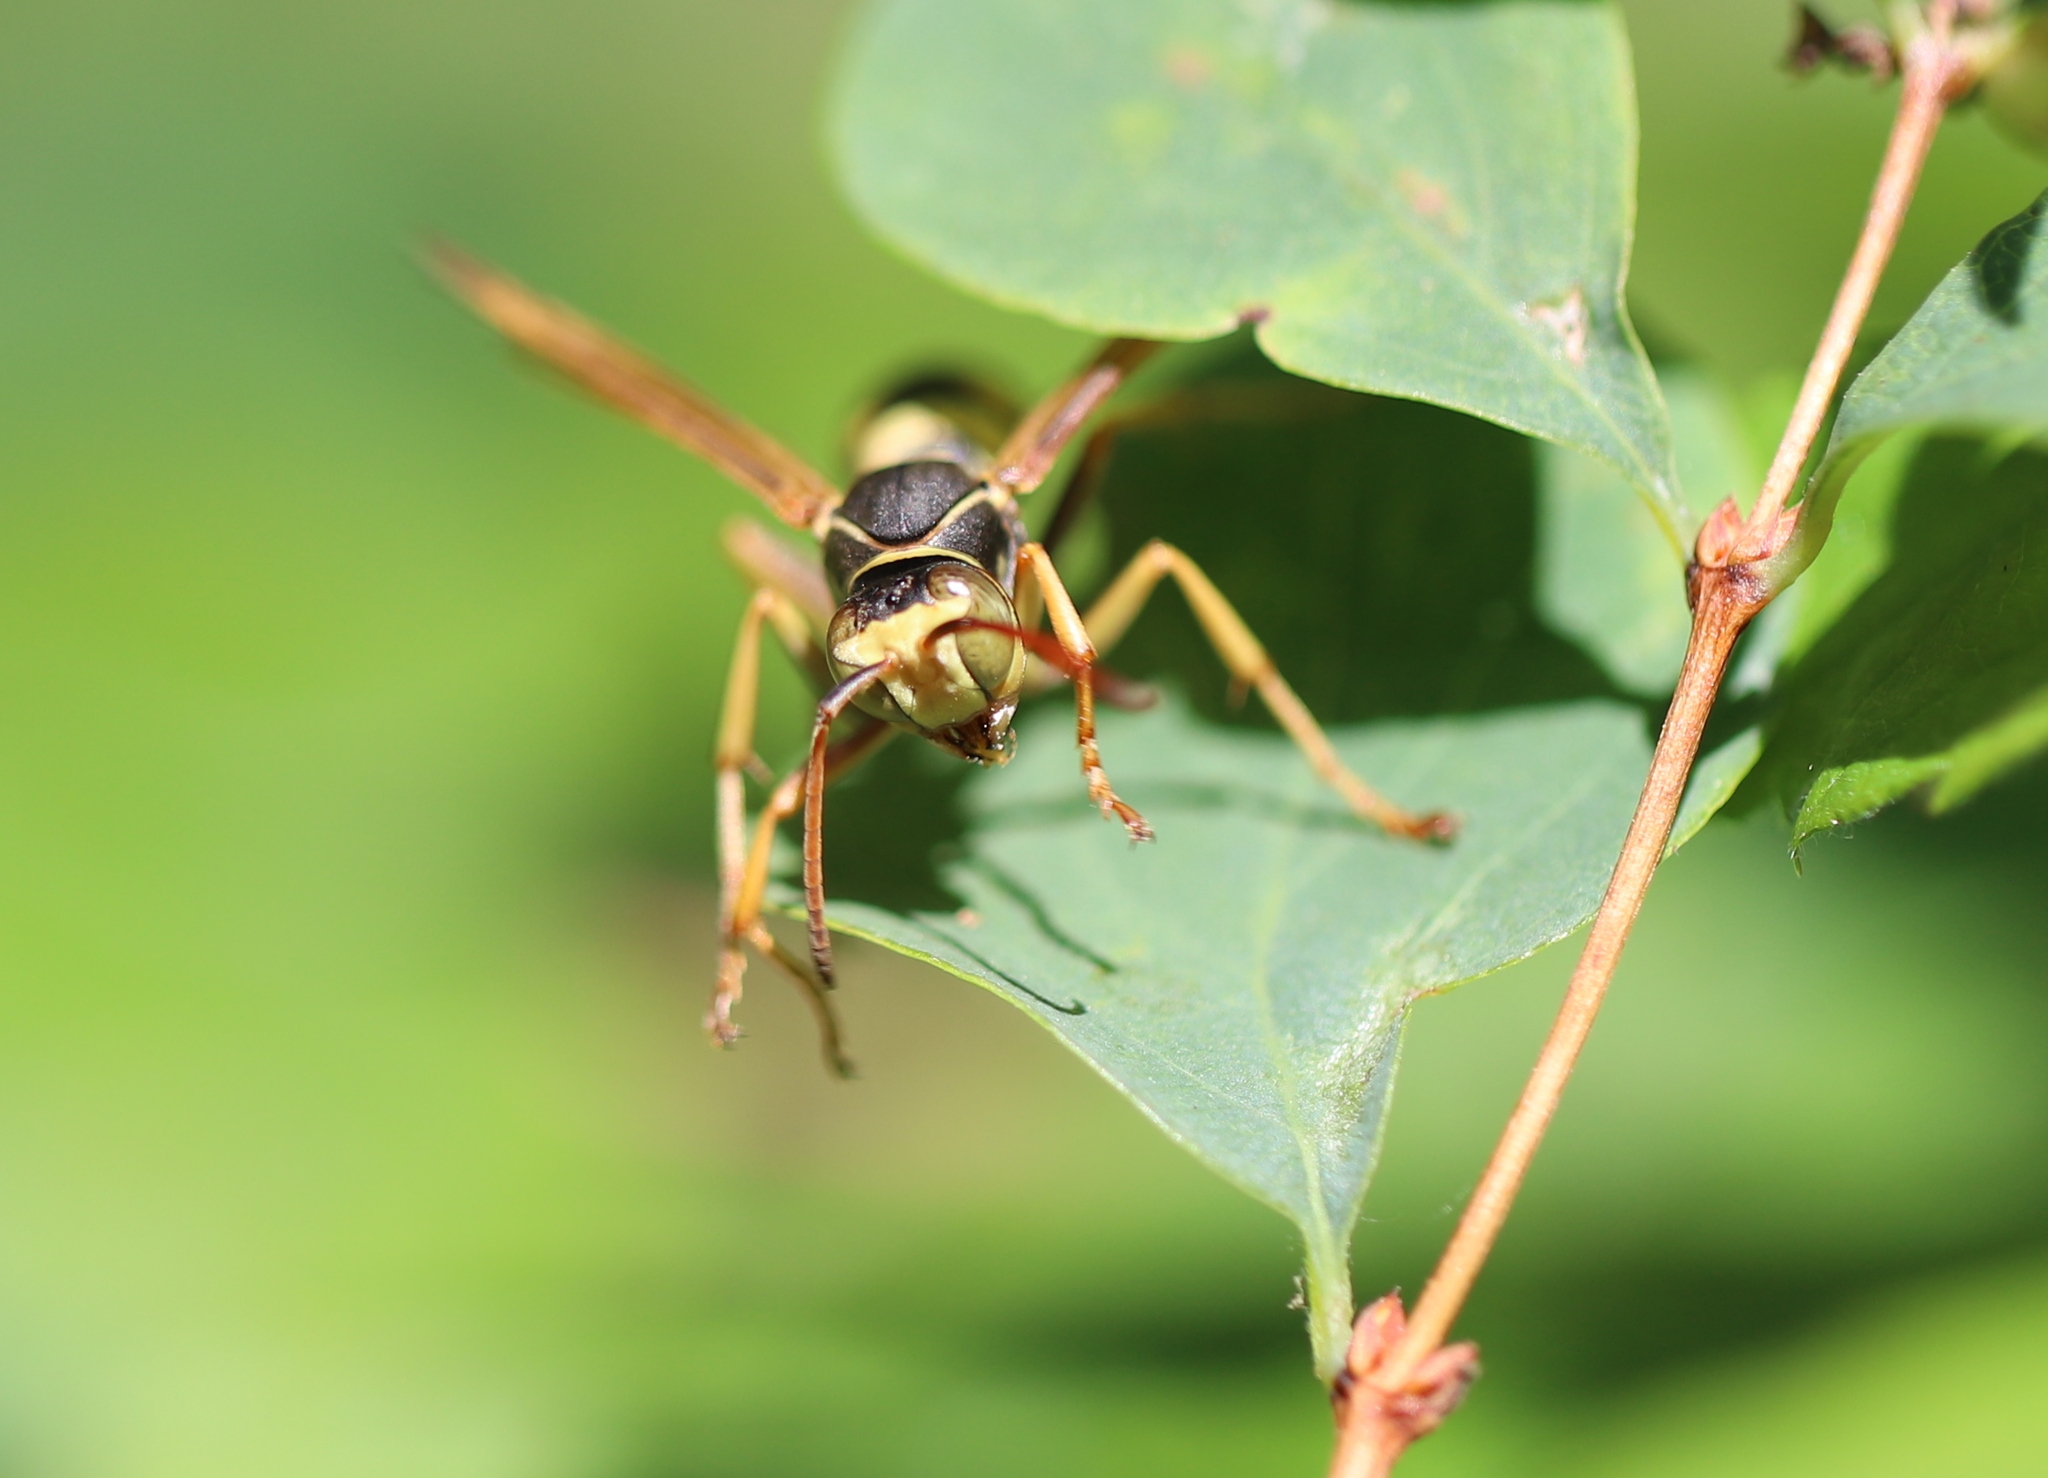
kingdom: Animalia
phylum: Arthropoda
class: Insecta
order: Hymenoptera
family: Eumenidae
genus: Polistes
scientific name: Polistes aurifer
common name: Paper wasp
